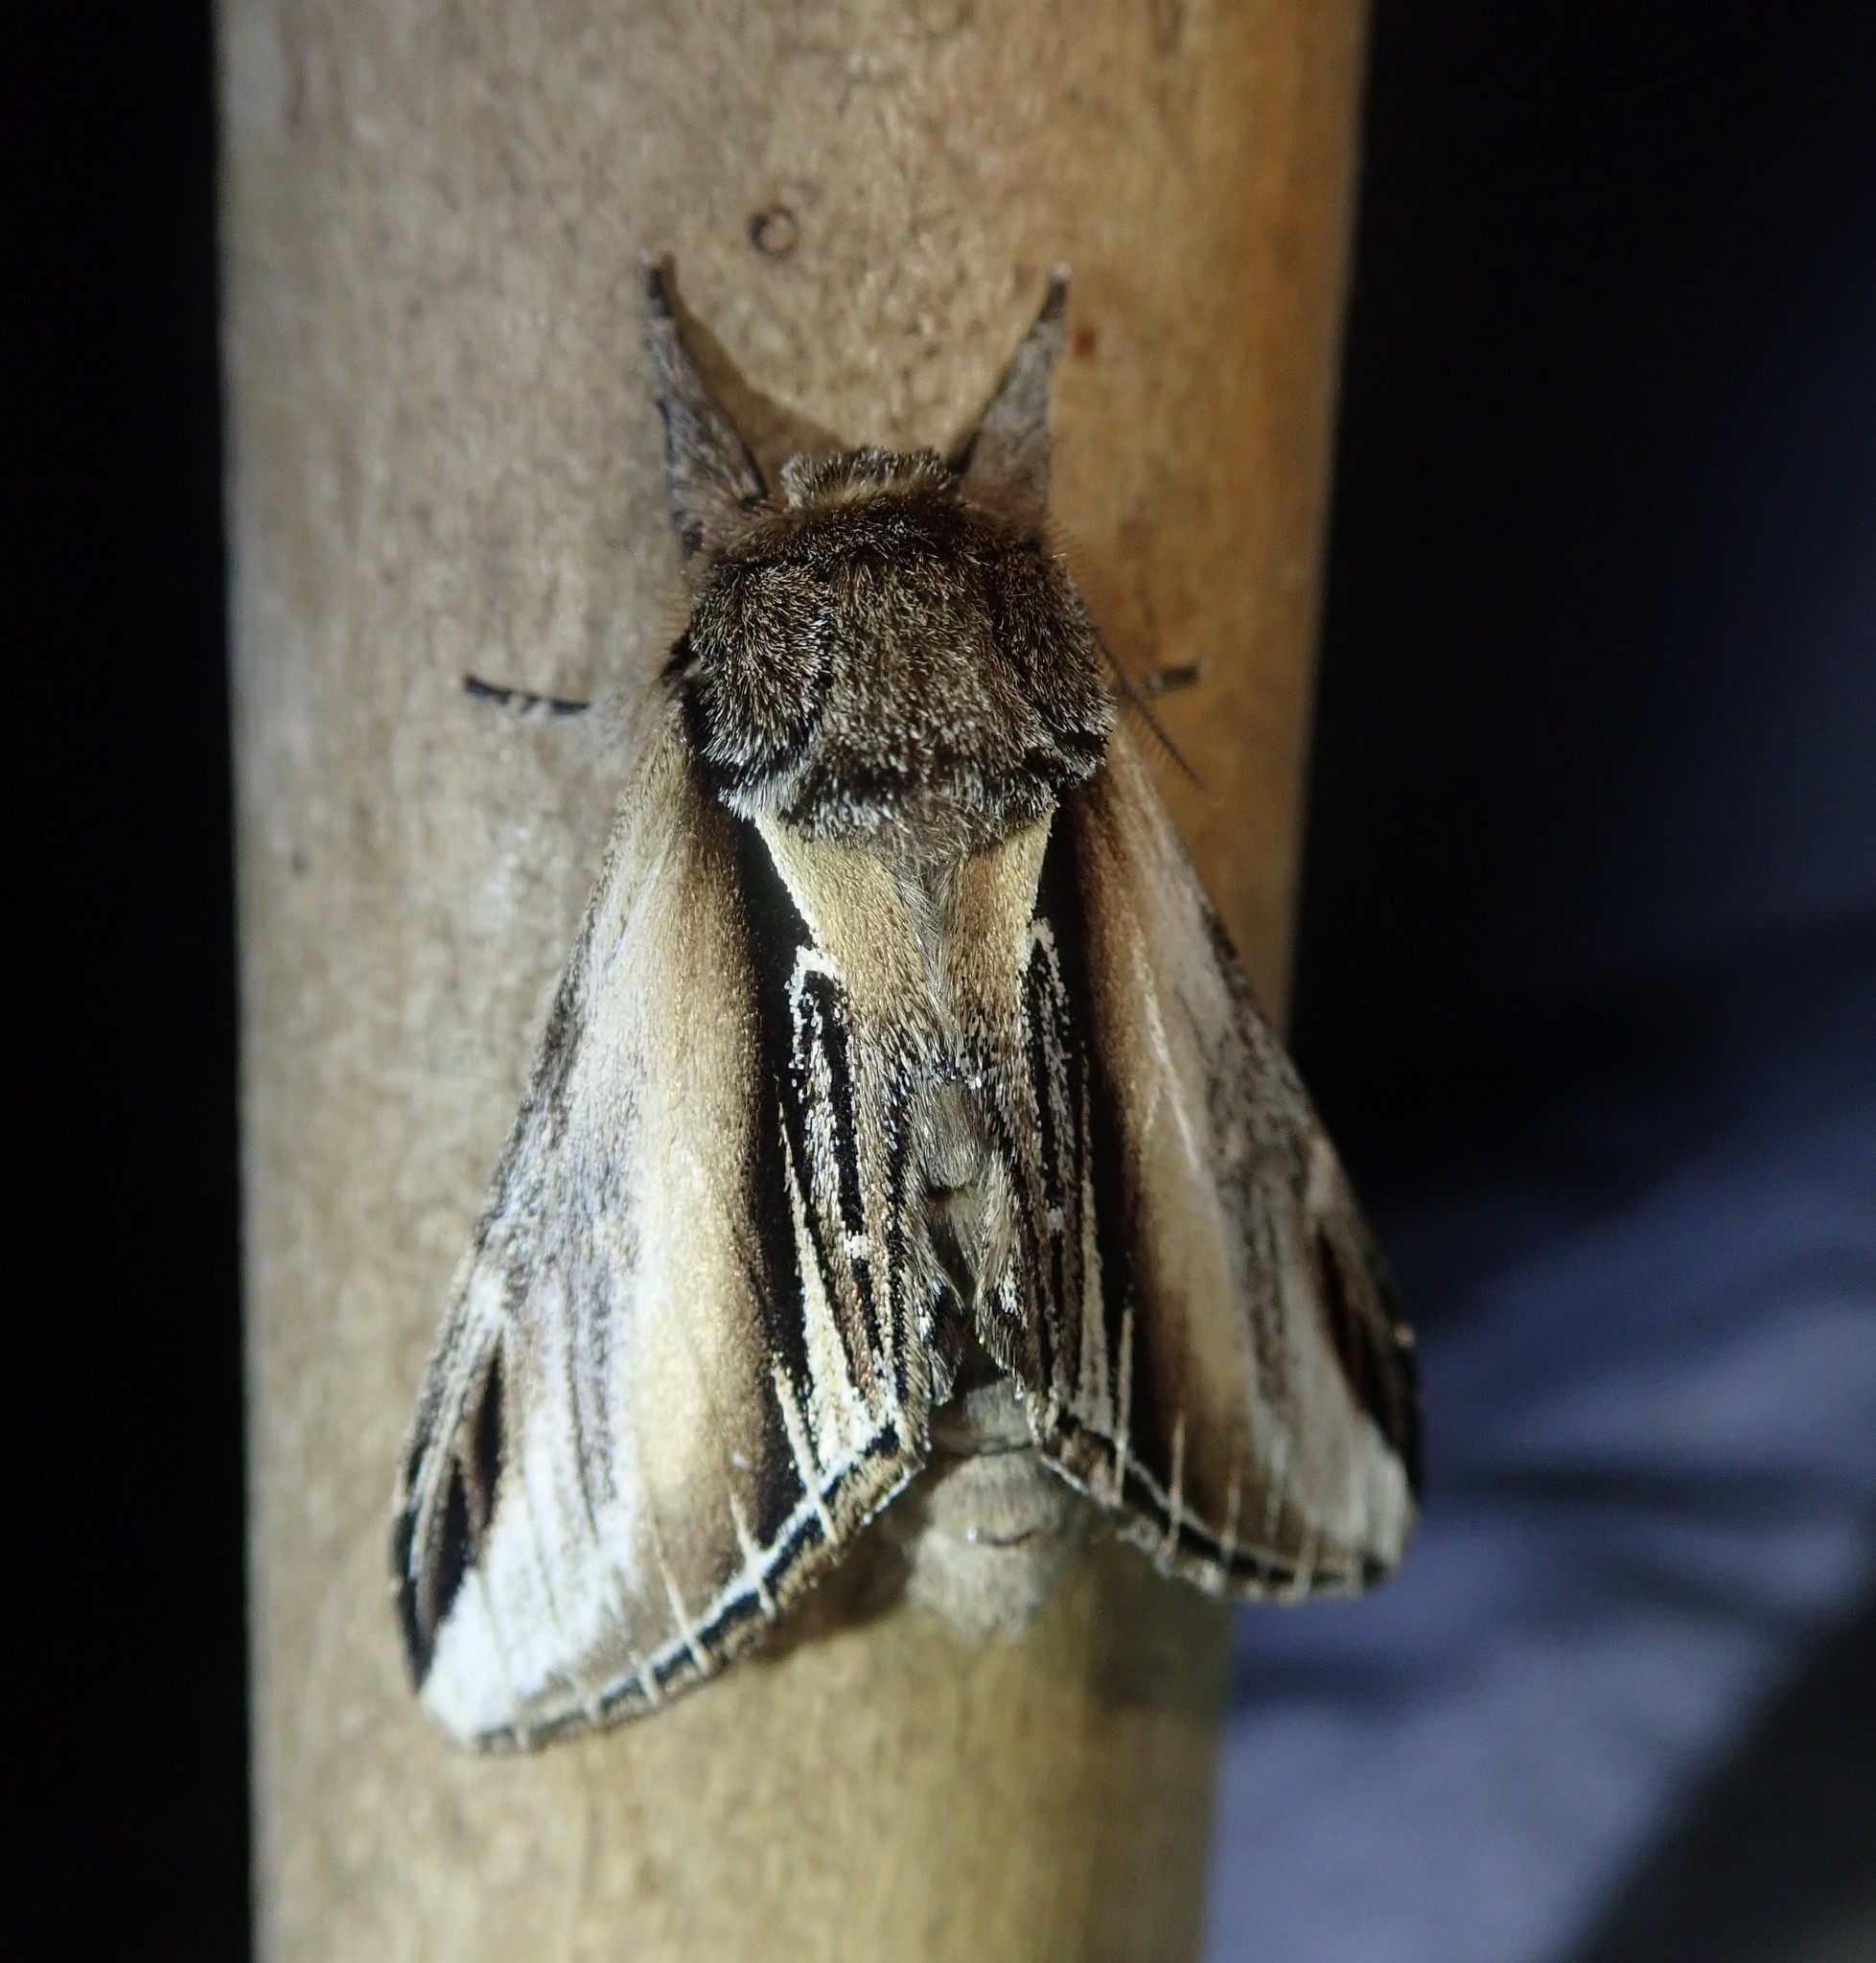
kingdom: Animalia
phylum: Arthropoda
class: Insecta
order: Lepidoptera
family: Notodontidae
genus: Pheosia
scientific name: Pheosia gnoma
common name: Lesser swallow prominent
